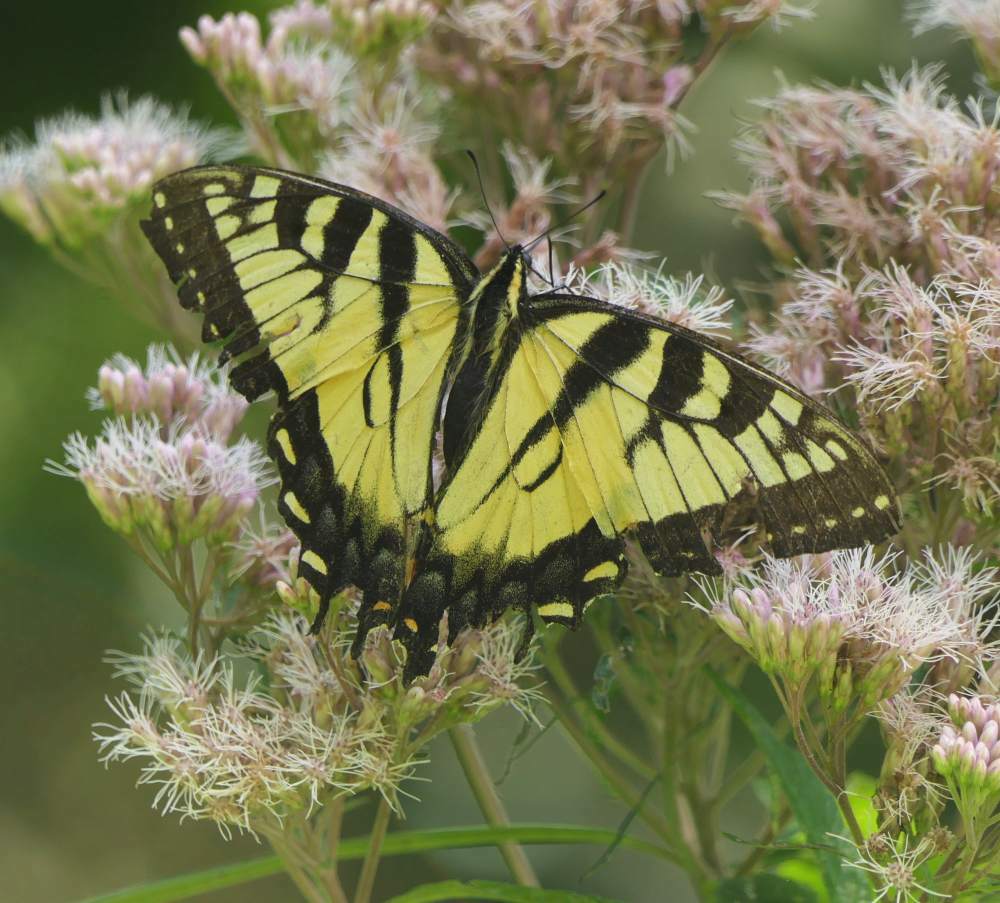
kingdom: Animalia
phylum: Arthropoda
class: Insecta
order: Lepidoptera
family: Papilionidae
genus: Papilio
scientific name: Papilio
